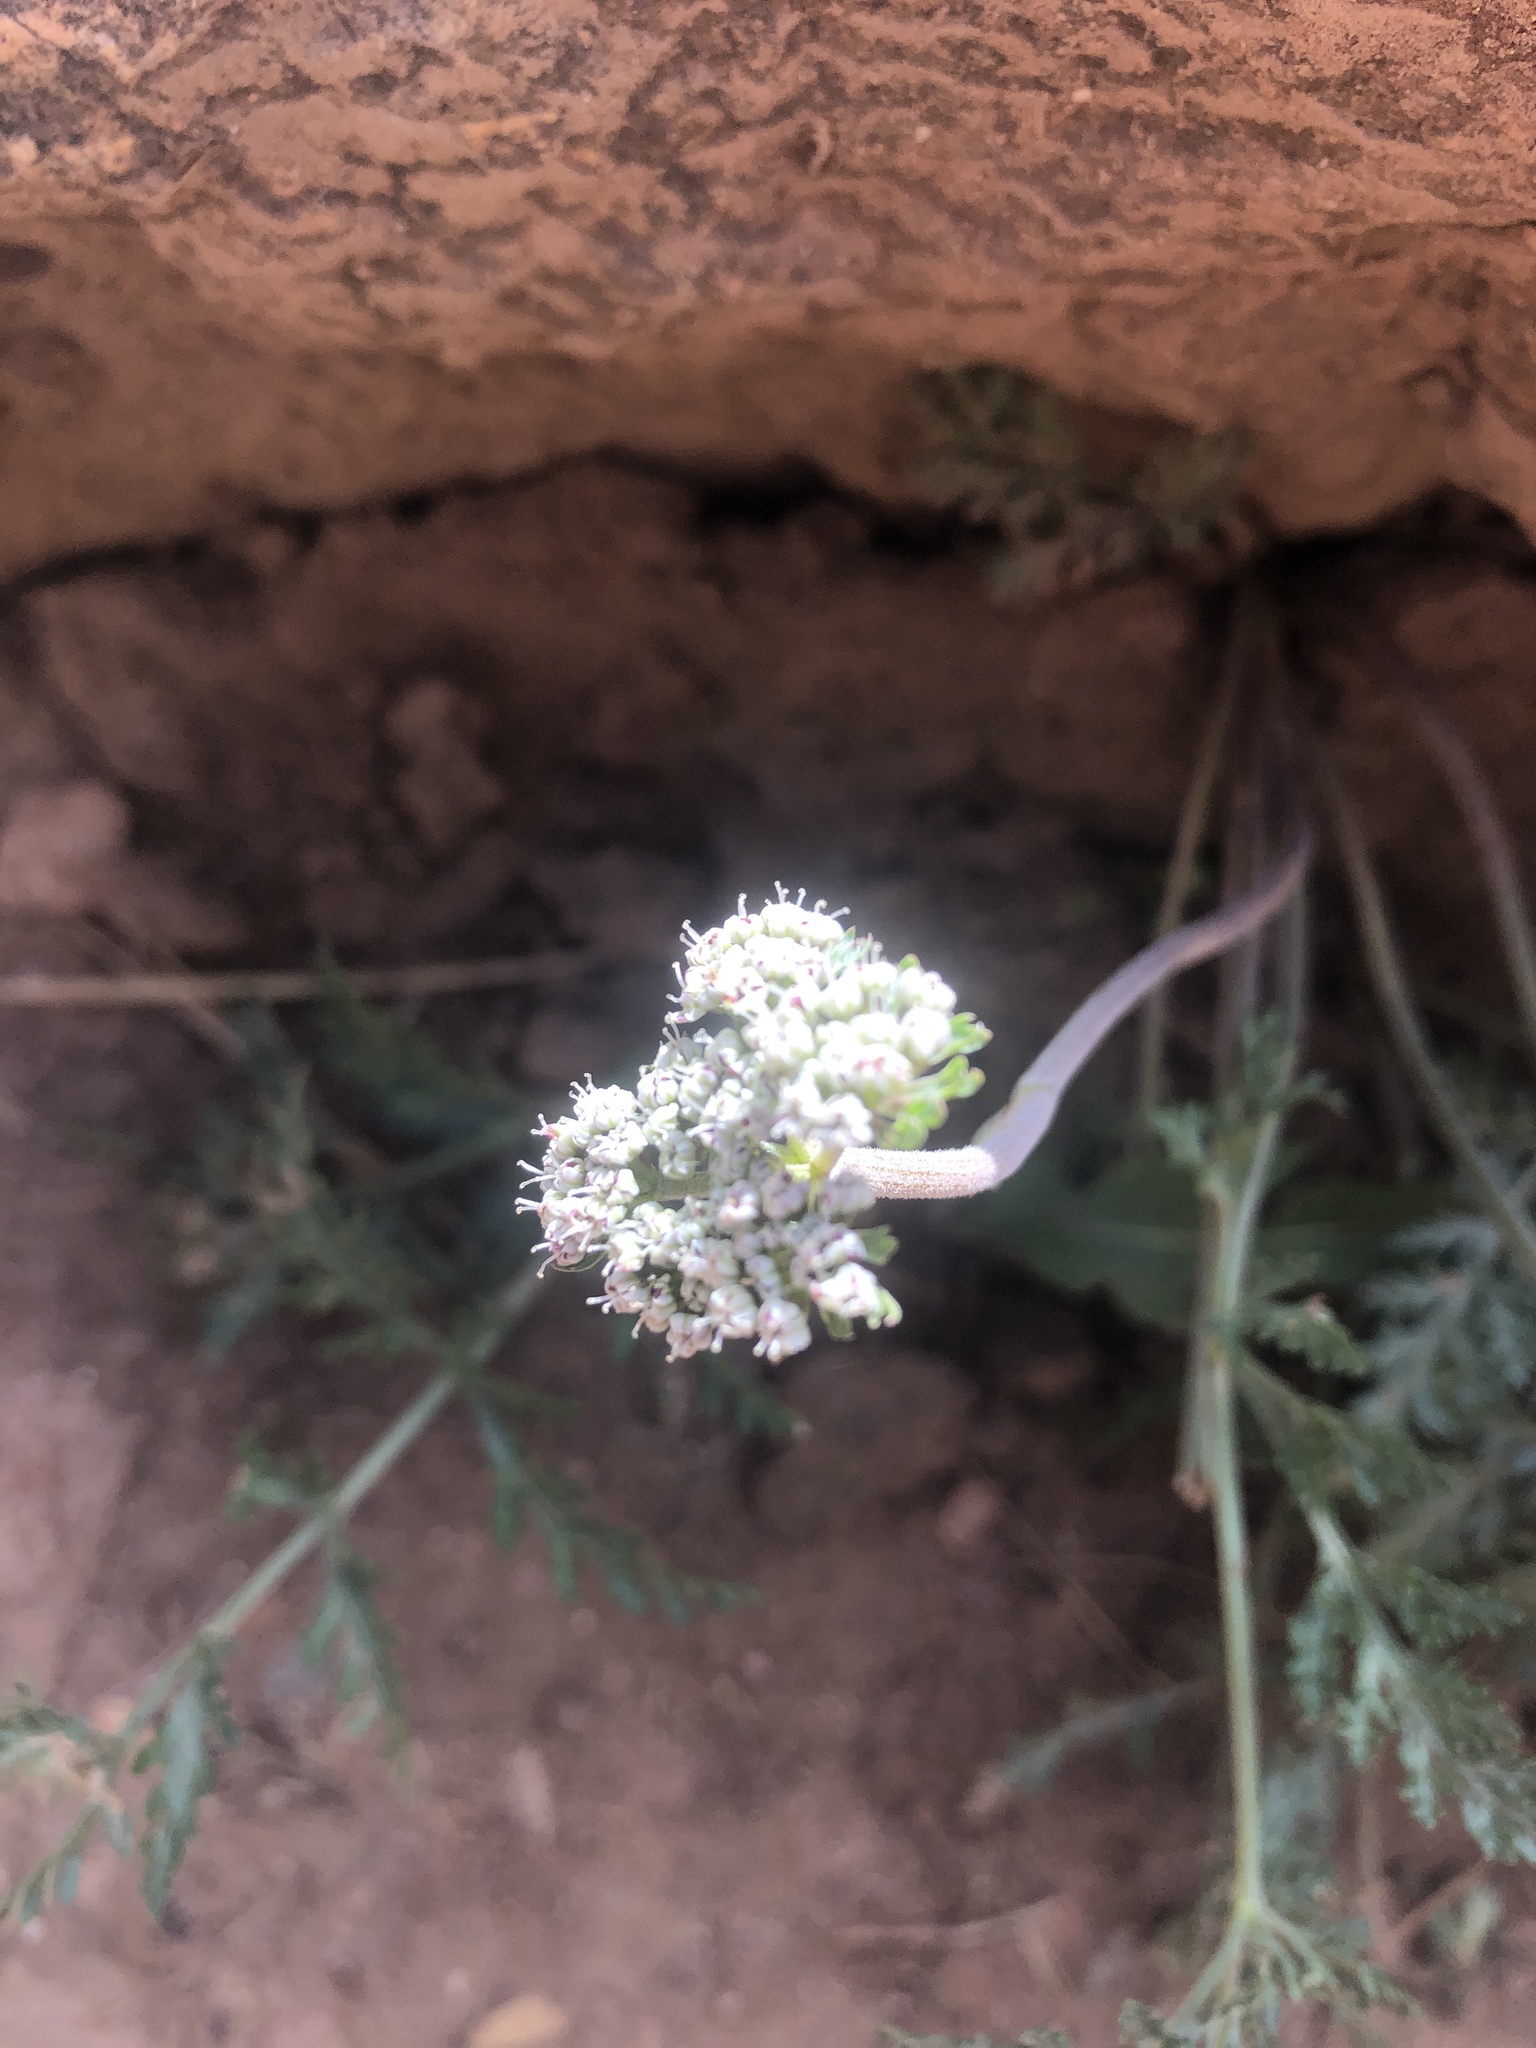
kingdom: Plantae
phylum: Tracheophyta
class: Magnoliopsida
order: Apiales
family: Apiaceae
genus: Lomatium
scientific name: Lomatium orientale
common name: Eastern cous
